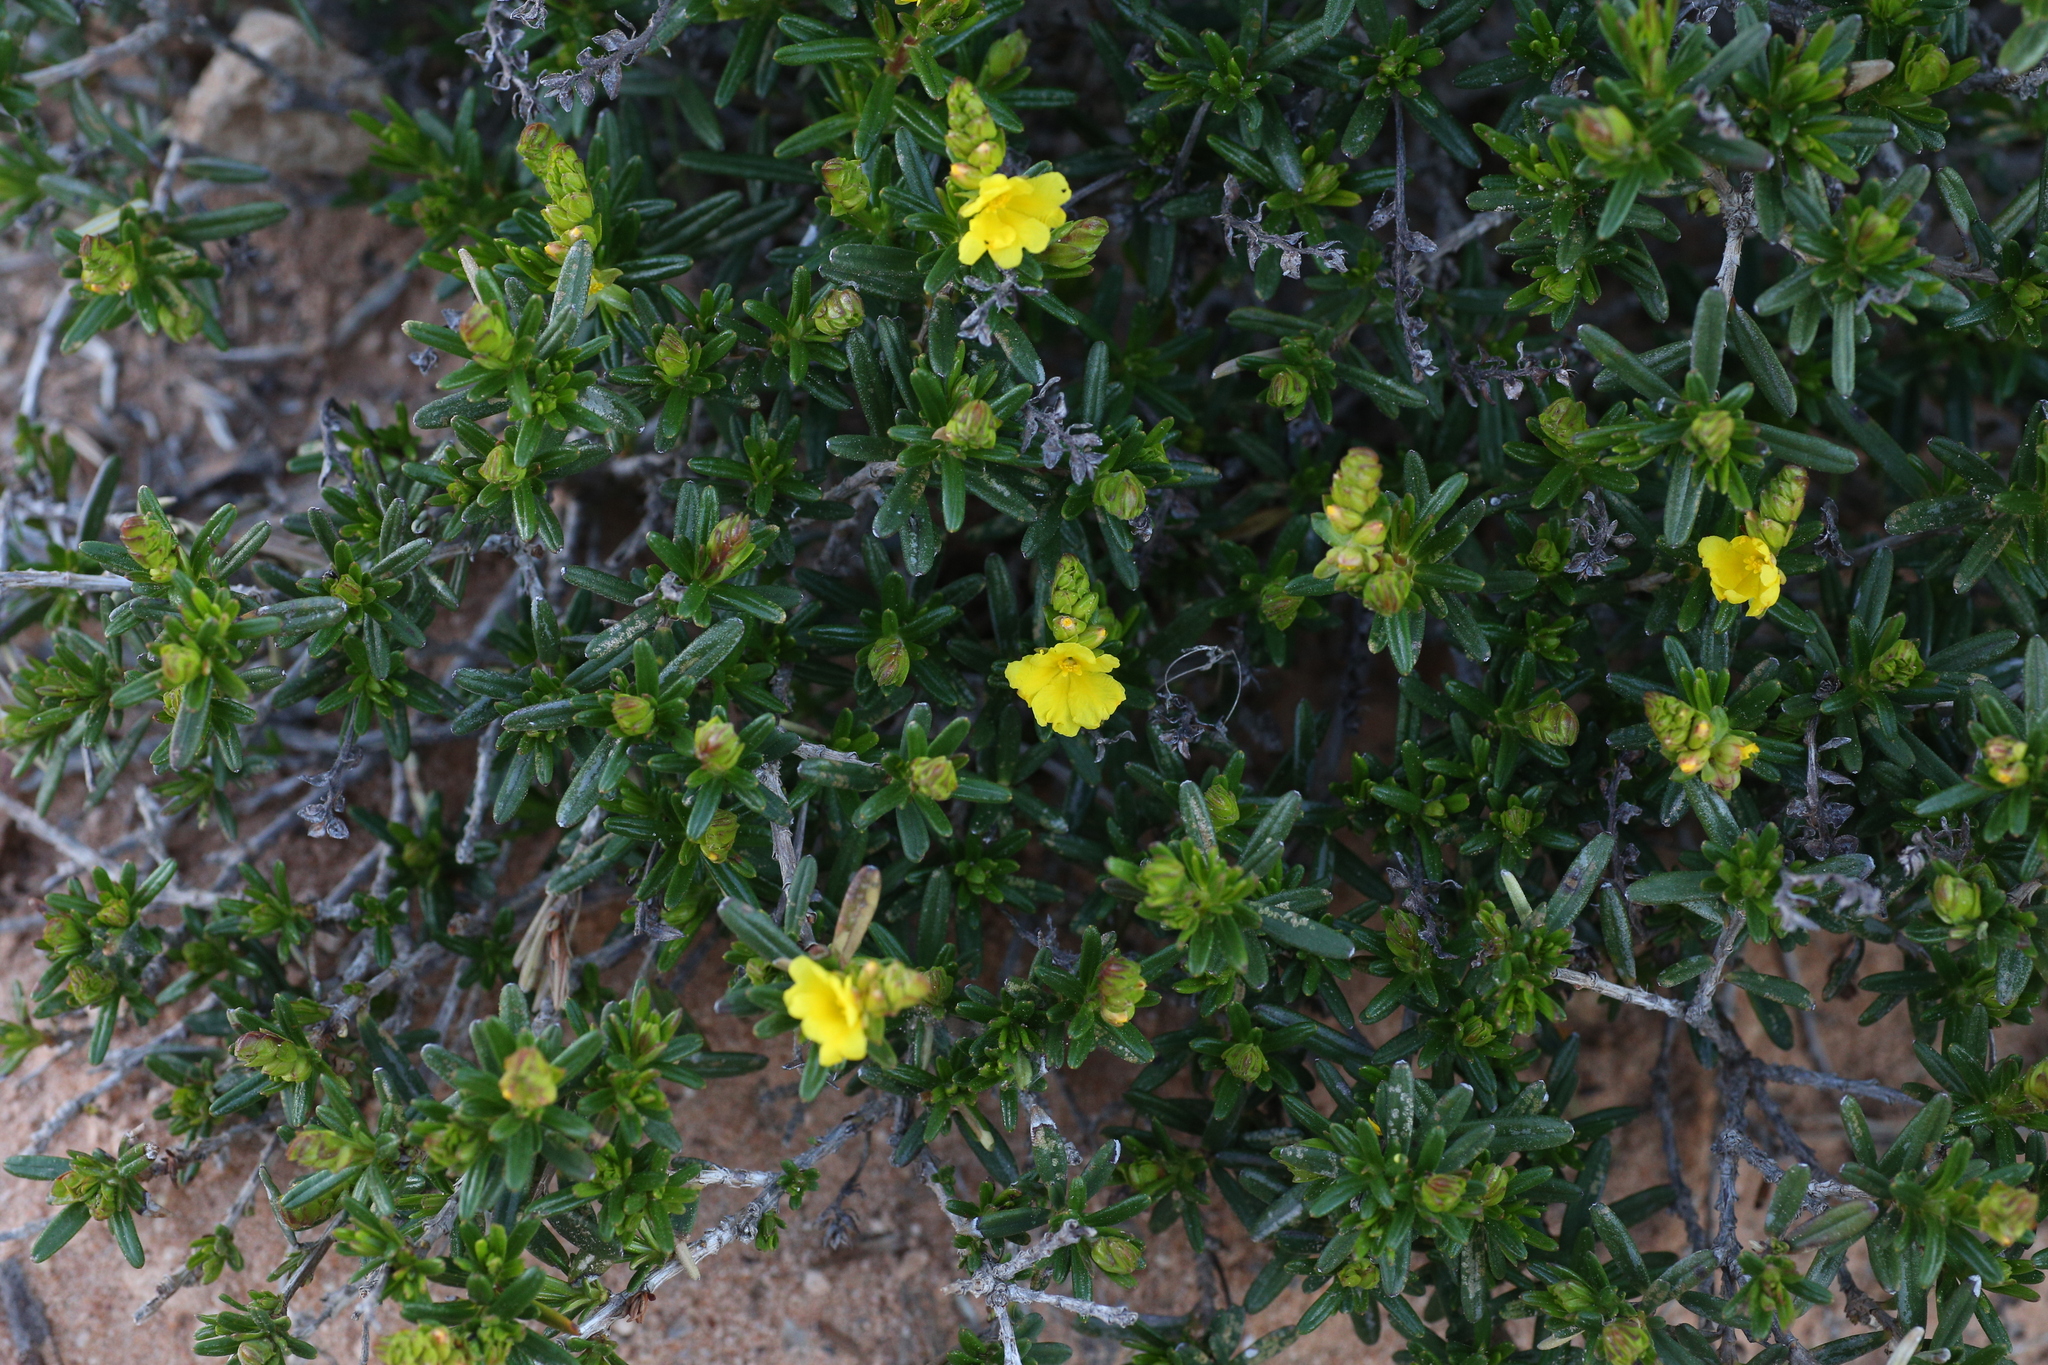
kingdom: Plantae
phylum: Tracheophyta
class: Magnoliopsida
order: Dilleniales
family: Dilleniaceae
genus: Hibbertia
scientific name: Hibbertia spicata
